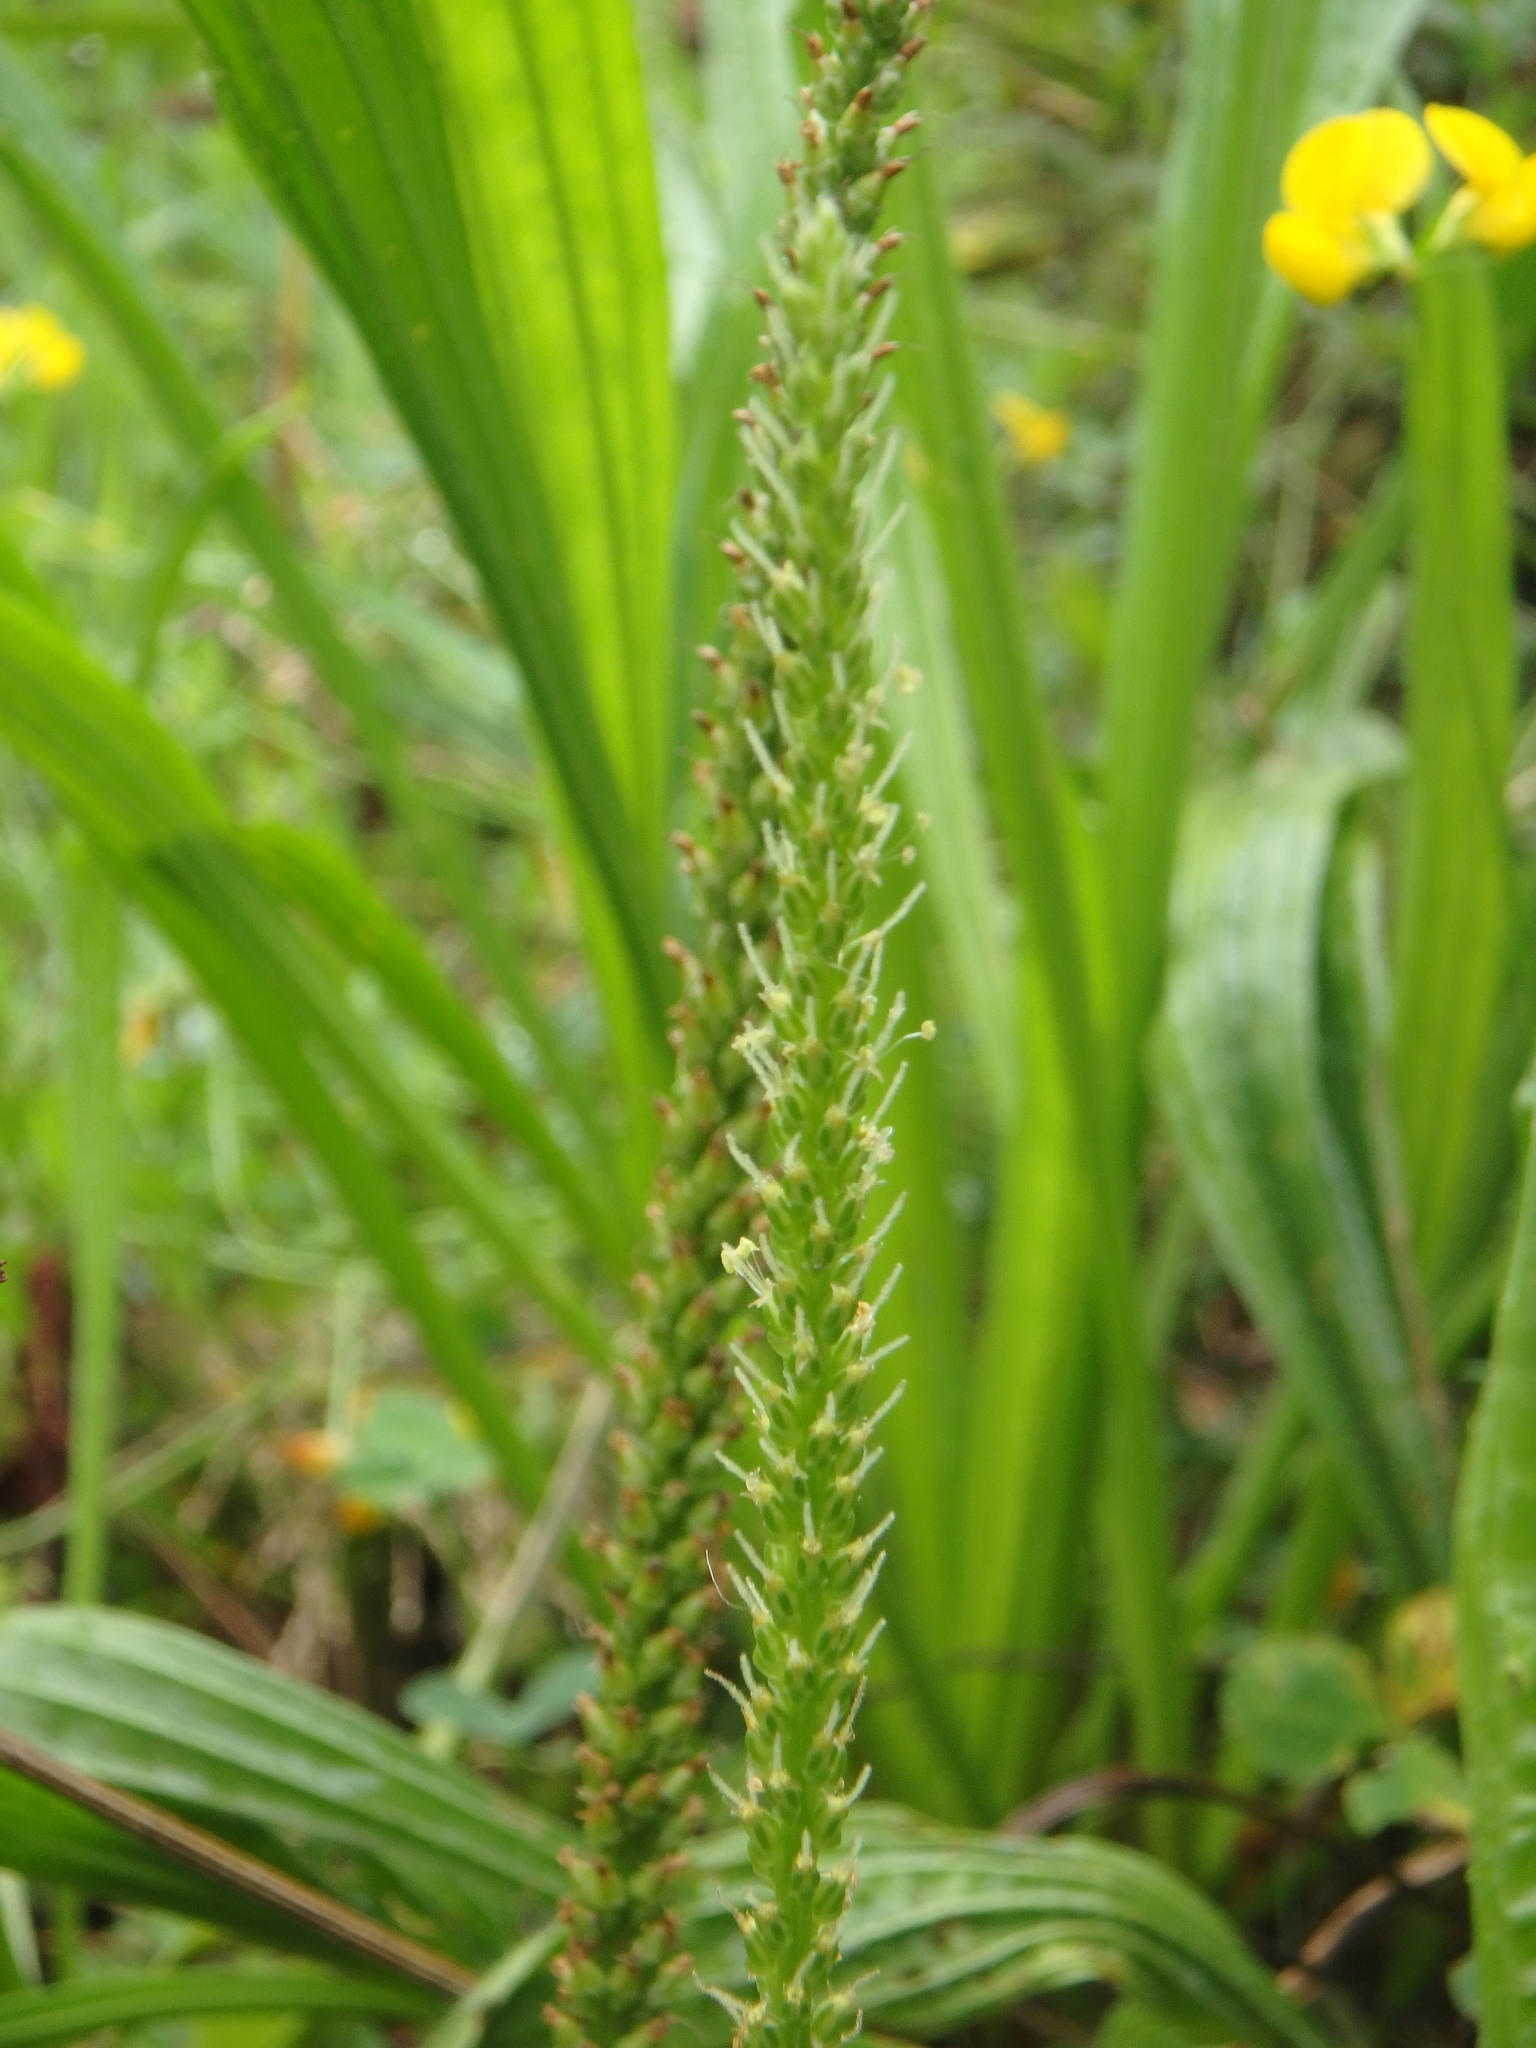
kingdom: Plantae
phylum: Tracheophyta
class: Magnoliopsida
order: Lamiales
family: Plantaginaceae
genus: Plantago
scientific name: Plantago major
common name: Common plantain
